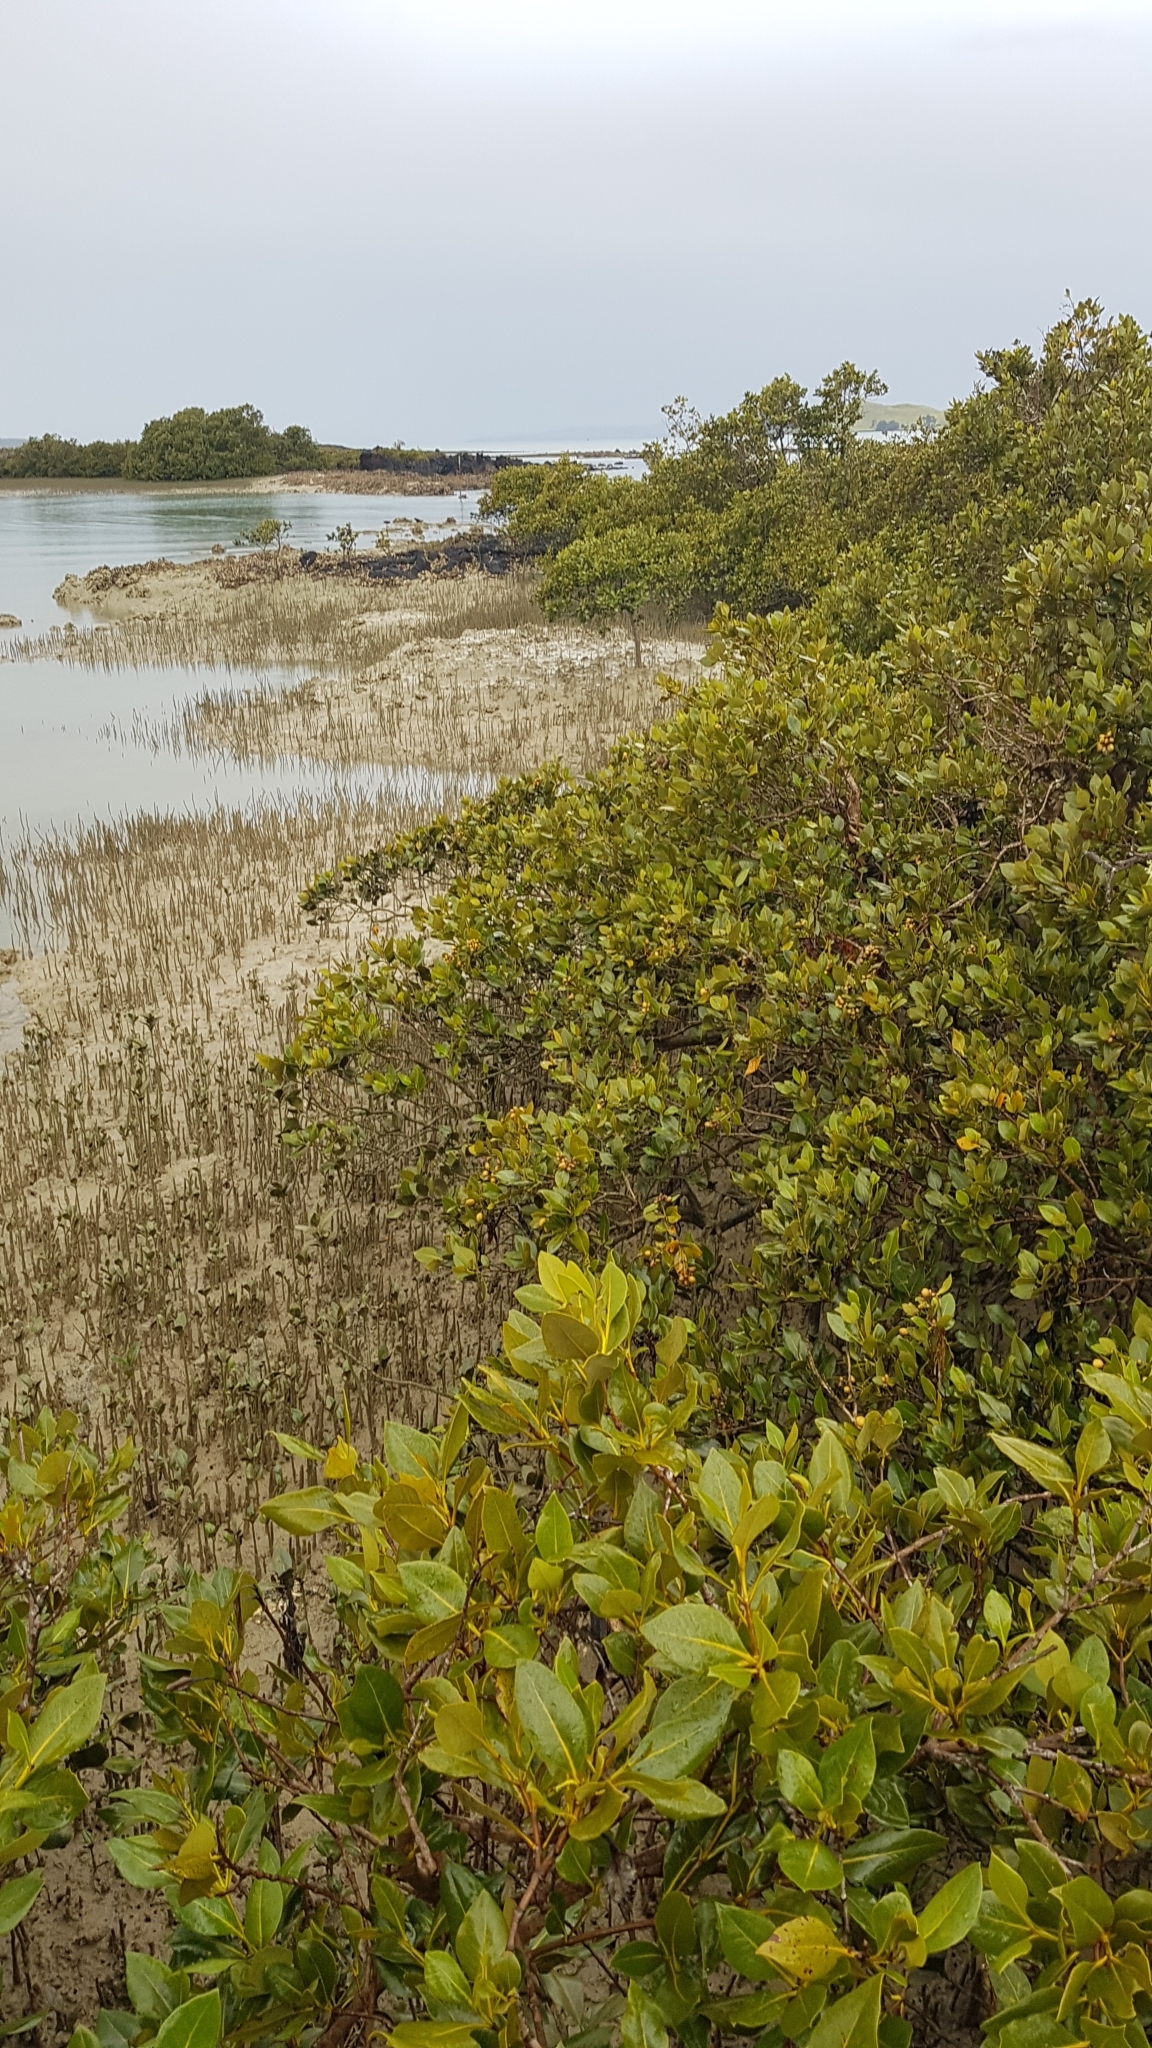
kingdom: Plantae
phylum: Tracheophyta
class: Magnoliopsida
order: Lamiales
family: Acanthaceae
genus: Avicennia
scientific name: Avicennia marina
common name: Gray mangrove
